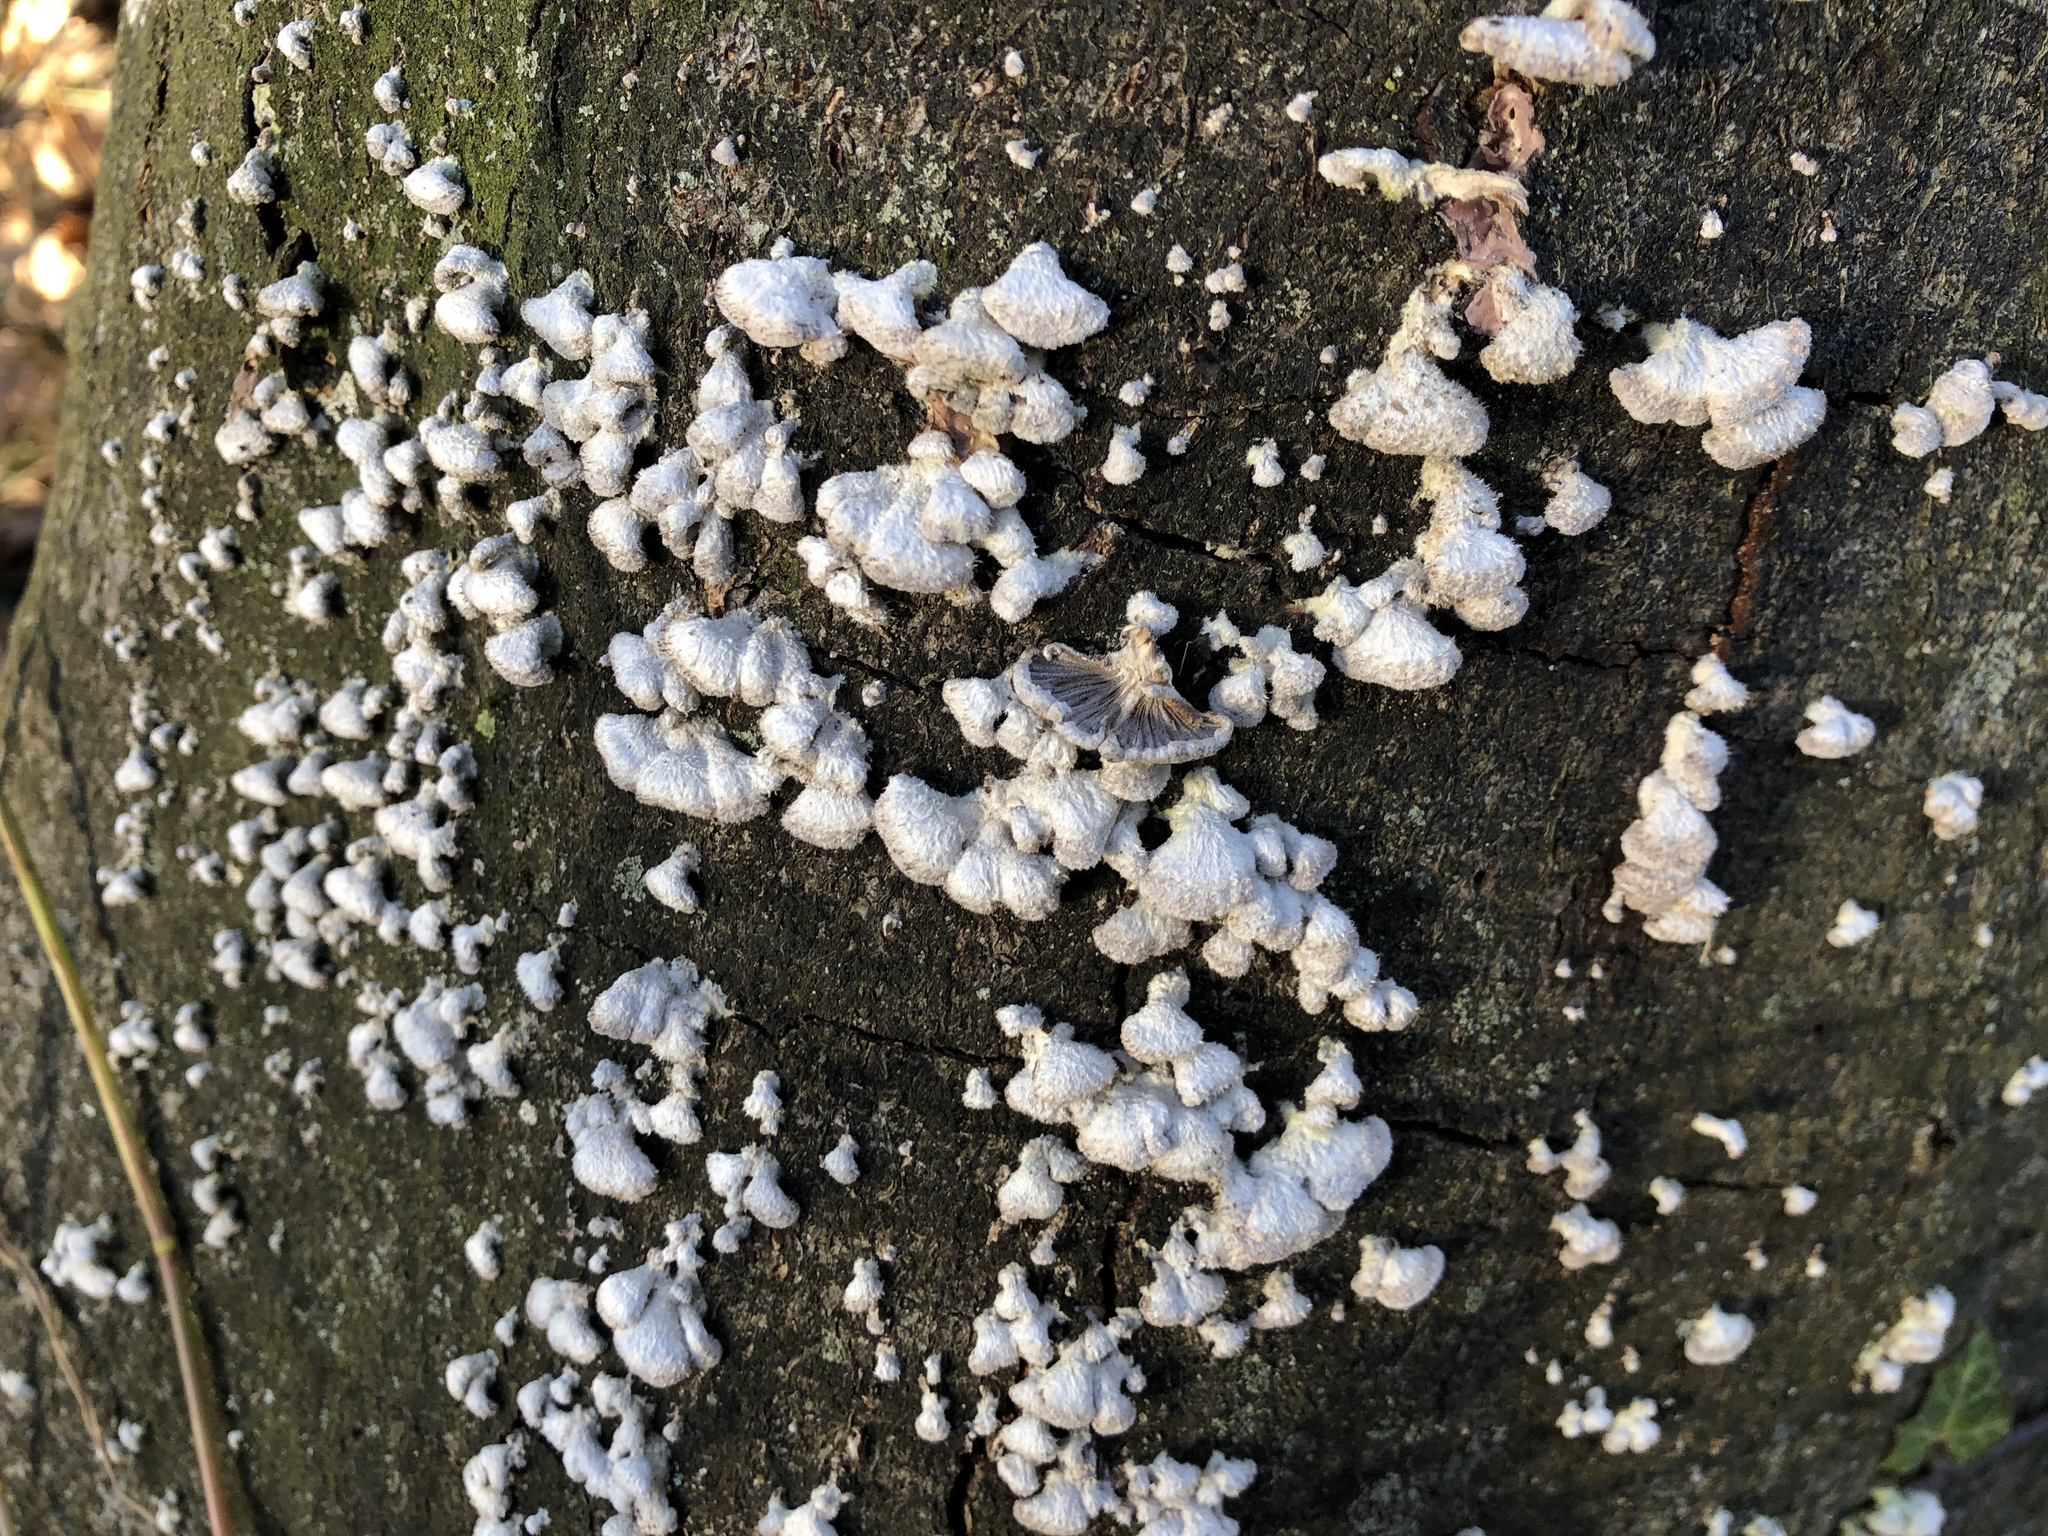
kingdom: Fungi
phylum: Basidiomycota
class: Agaricomycetes
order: Agaricales
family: Schizophyllaceae
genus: Schizophyllum
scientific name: Schizophyllum commune
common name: Common porecrust
